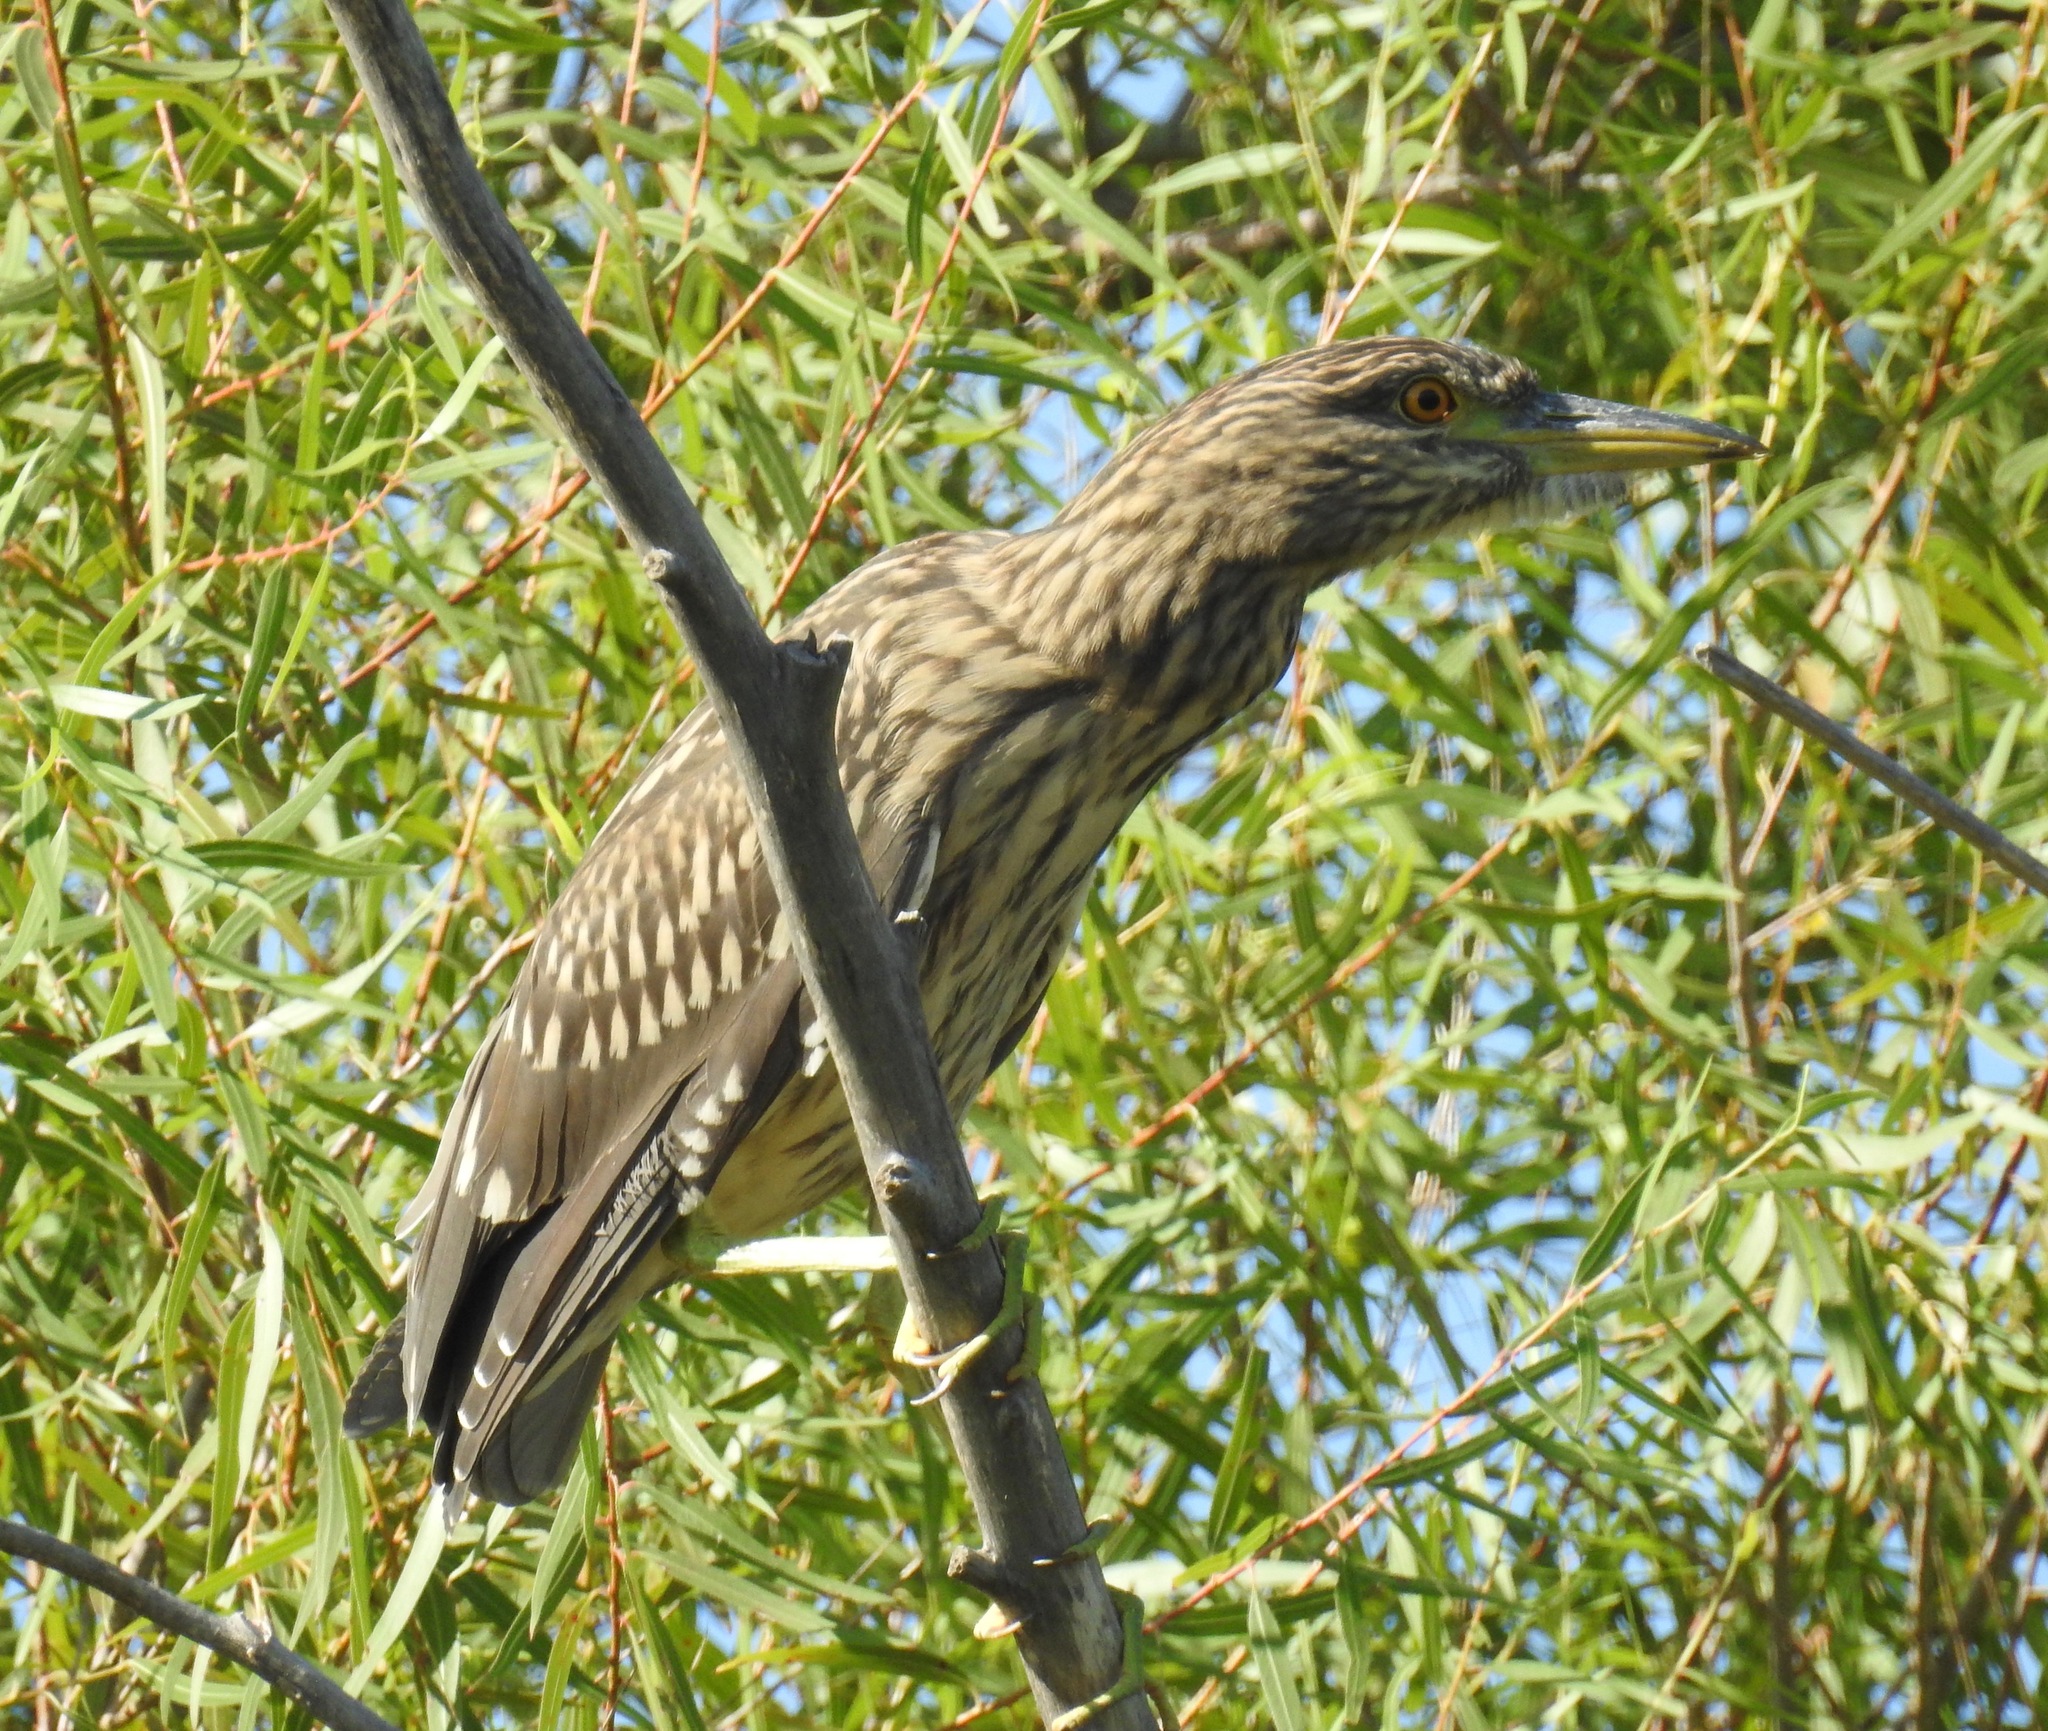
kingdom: Animalia
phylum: Chordata
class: Aves
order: Pelecaniformes
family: Ardeidae
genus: Nycticorax
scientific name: Nycticorax nycticorax
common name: Black-crowned night heron
